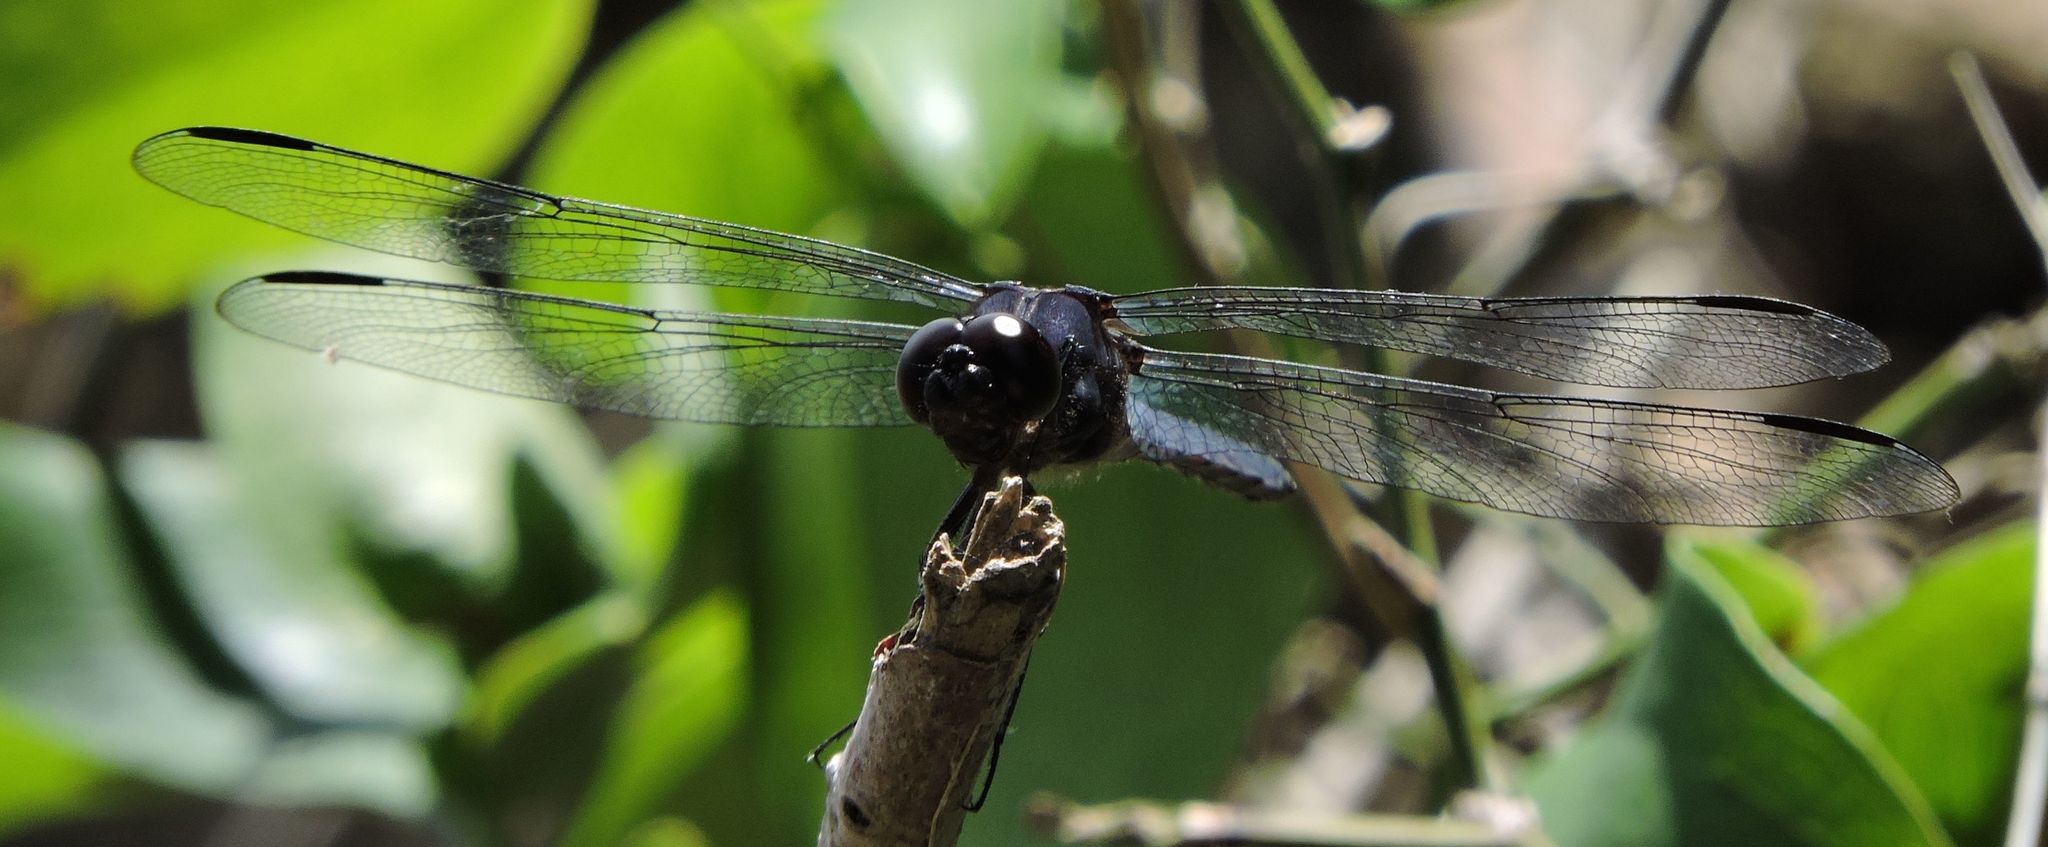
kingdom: Animalia
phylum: Arthropoda
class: Insecta
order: Odonata
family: Libellulidae
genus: Libellula
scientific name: Libellula incesta
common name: Slaty skimmer
